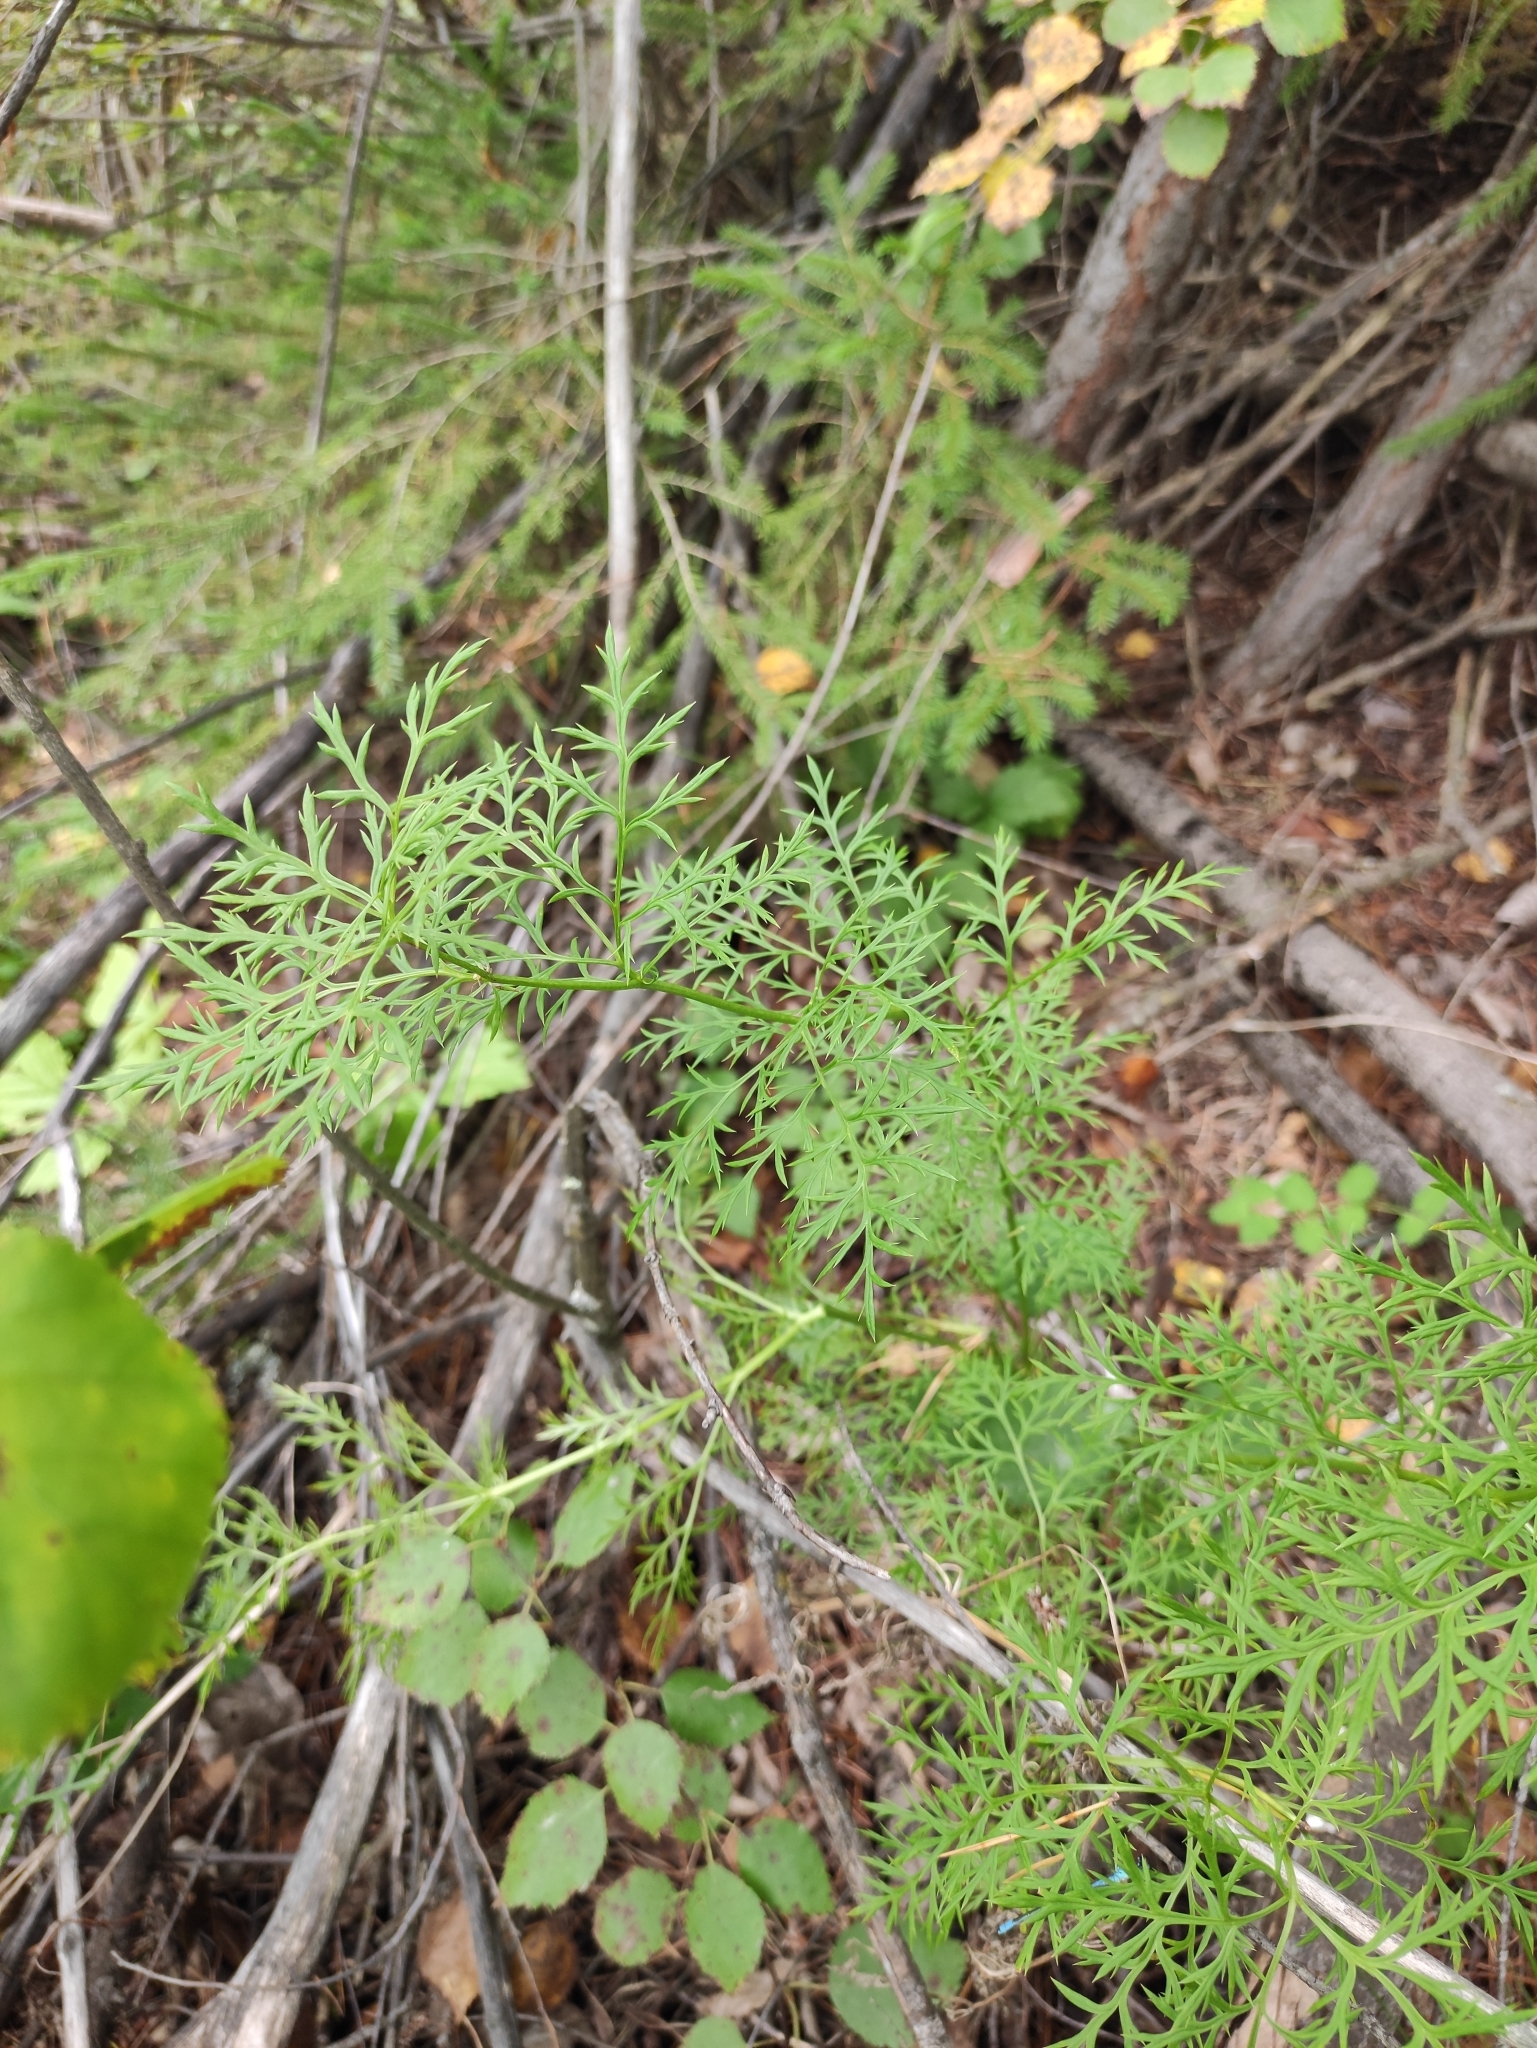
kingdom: Plantae
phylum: Tracheophyta
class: Magnoliopsida
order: Ranunculales
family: Ranunculaceae
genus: Adonis
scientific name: Adonis
